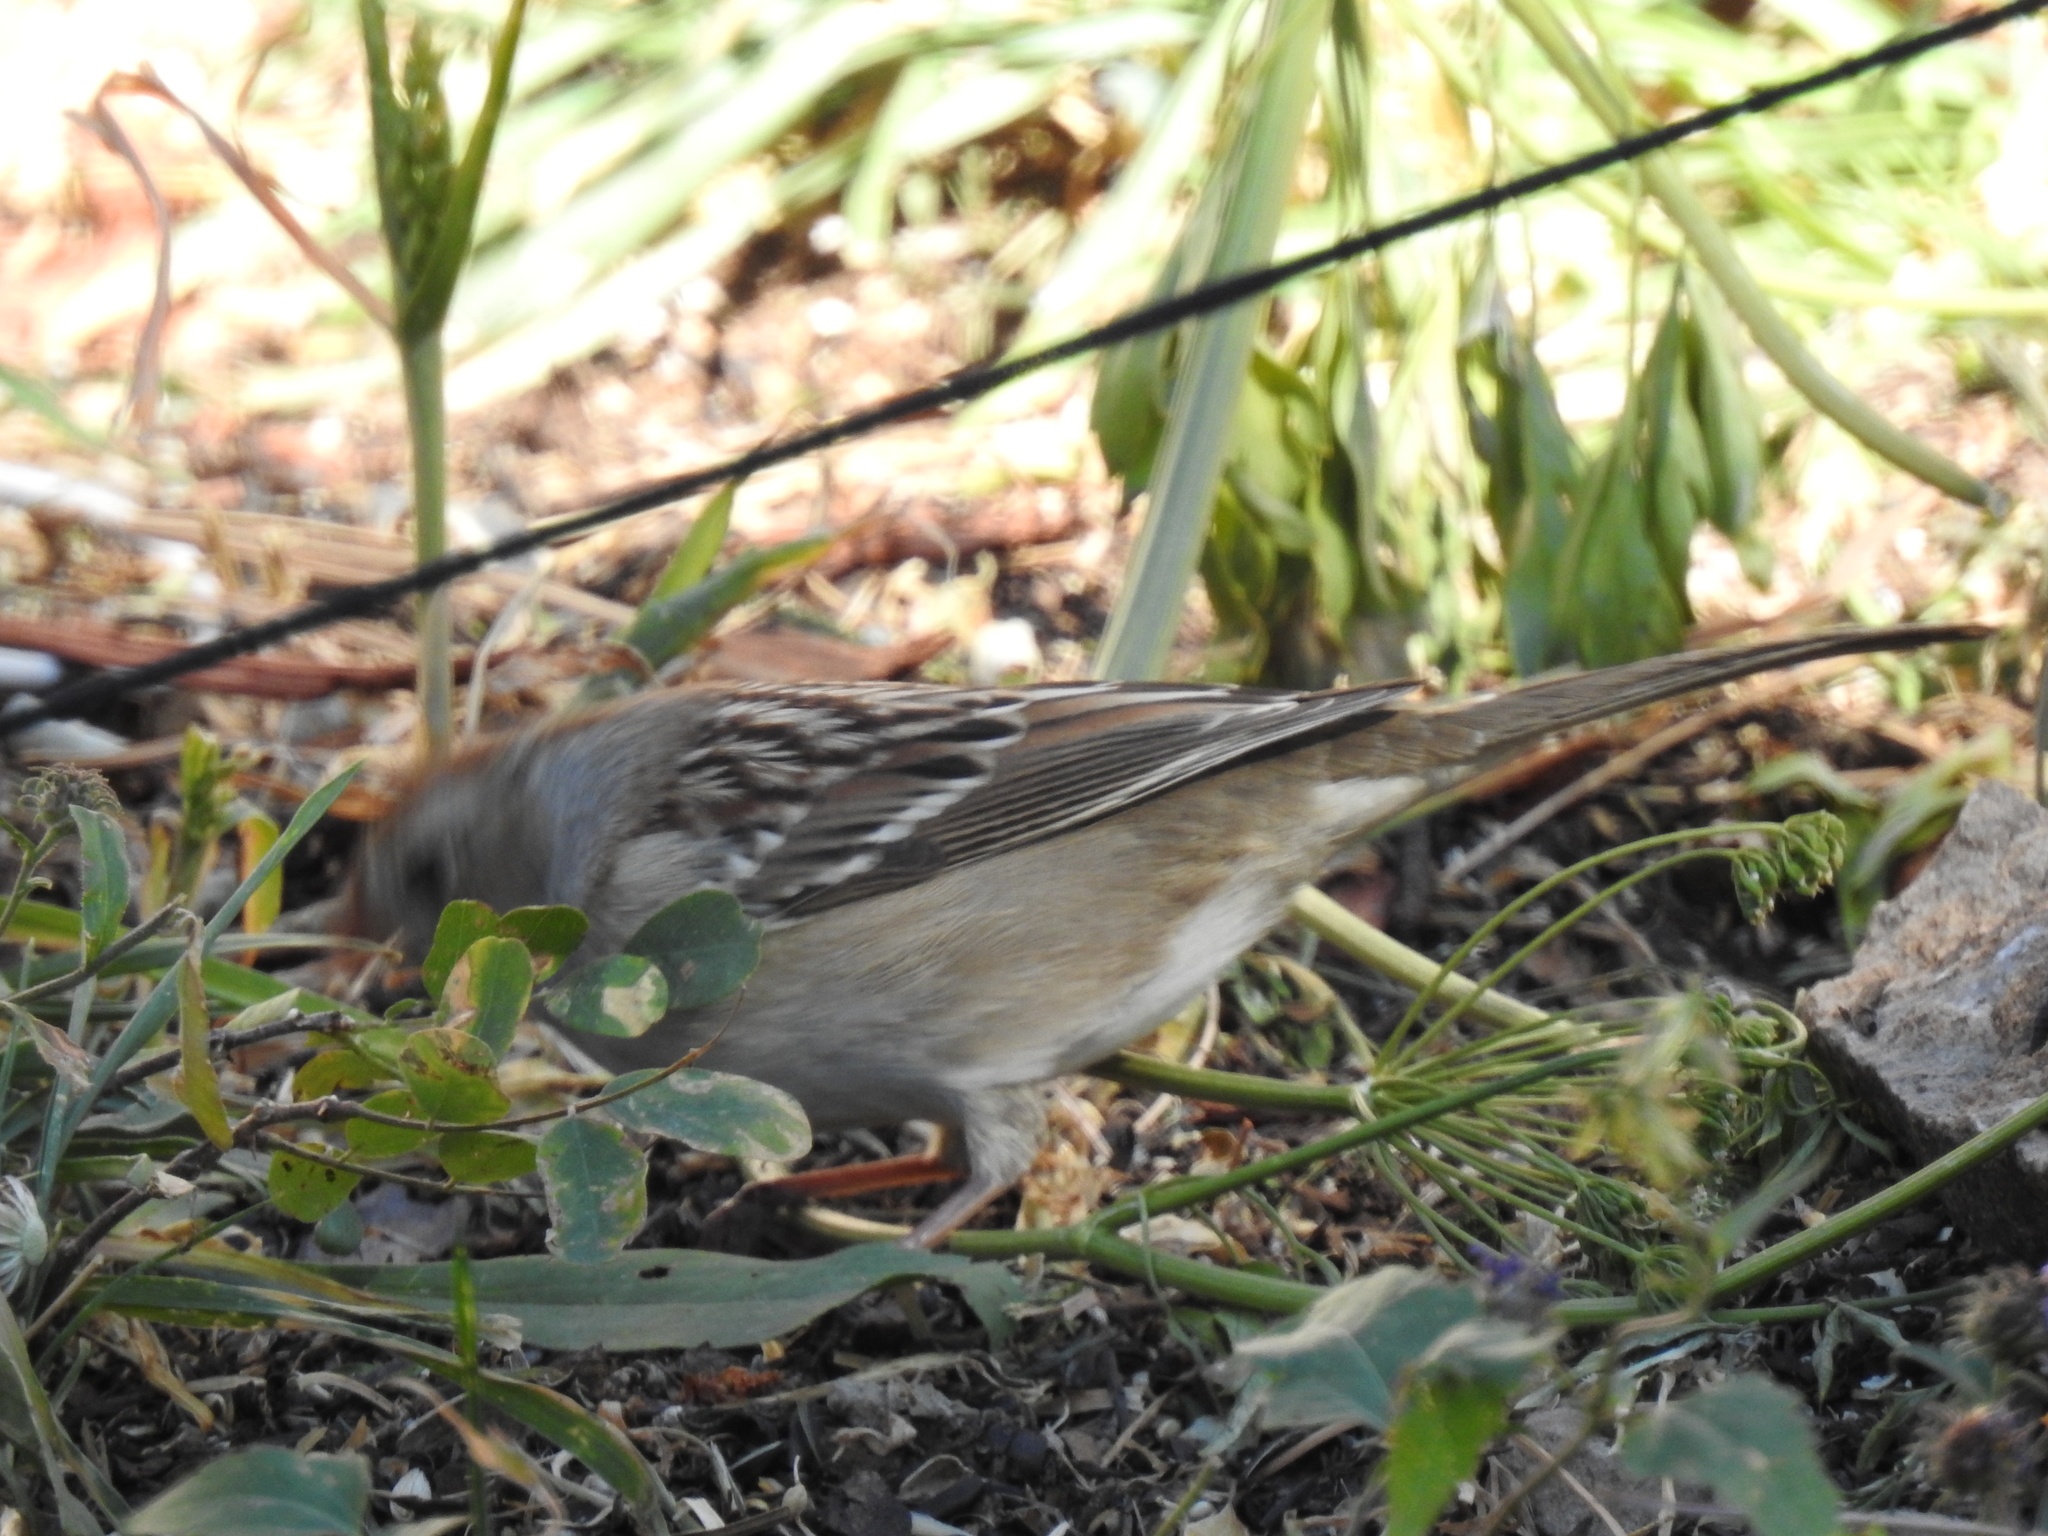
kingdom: Animalia
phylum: Chordata
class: Aves
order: Passeriformes
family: Passerellidae
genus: Zonotrichia
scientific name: Zonotrichia leucophrys
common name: White-crowned sparrow
